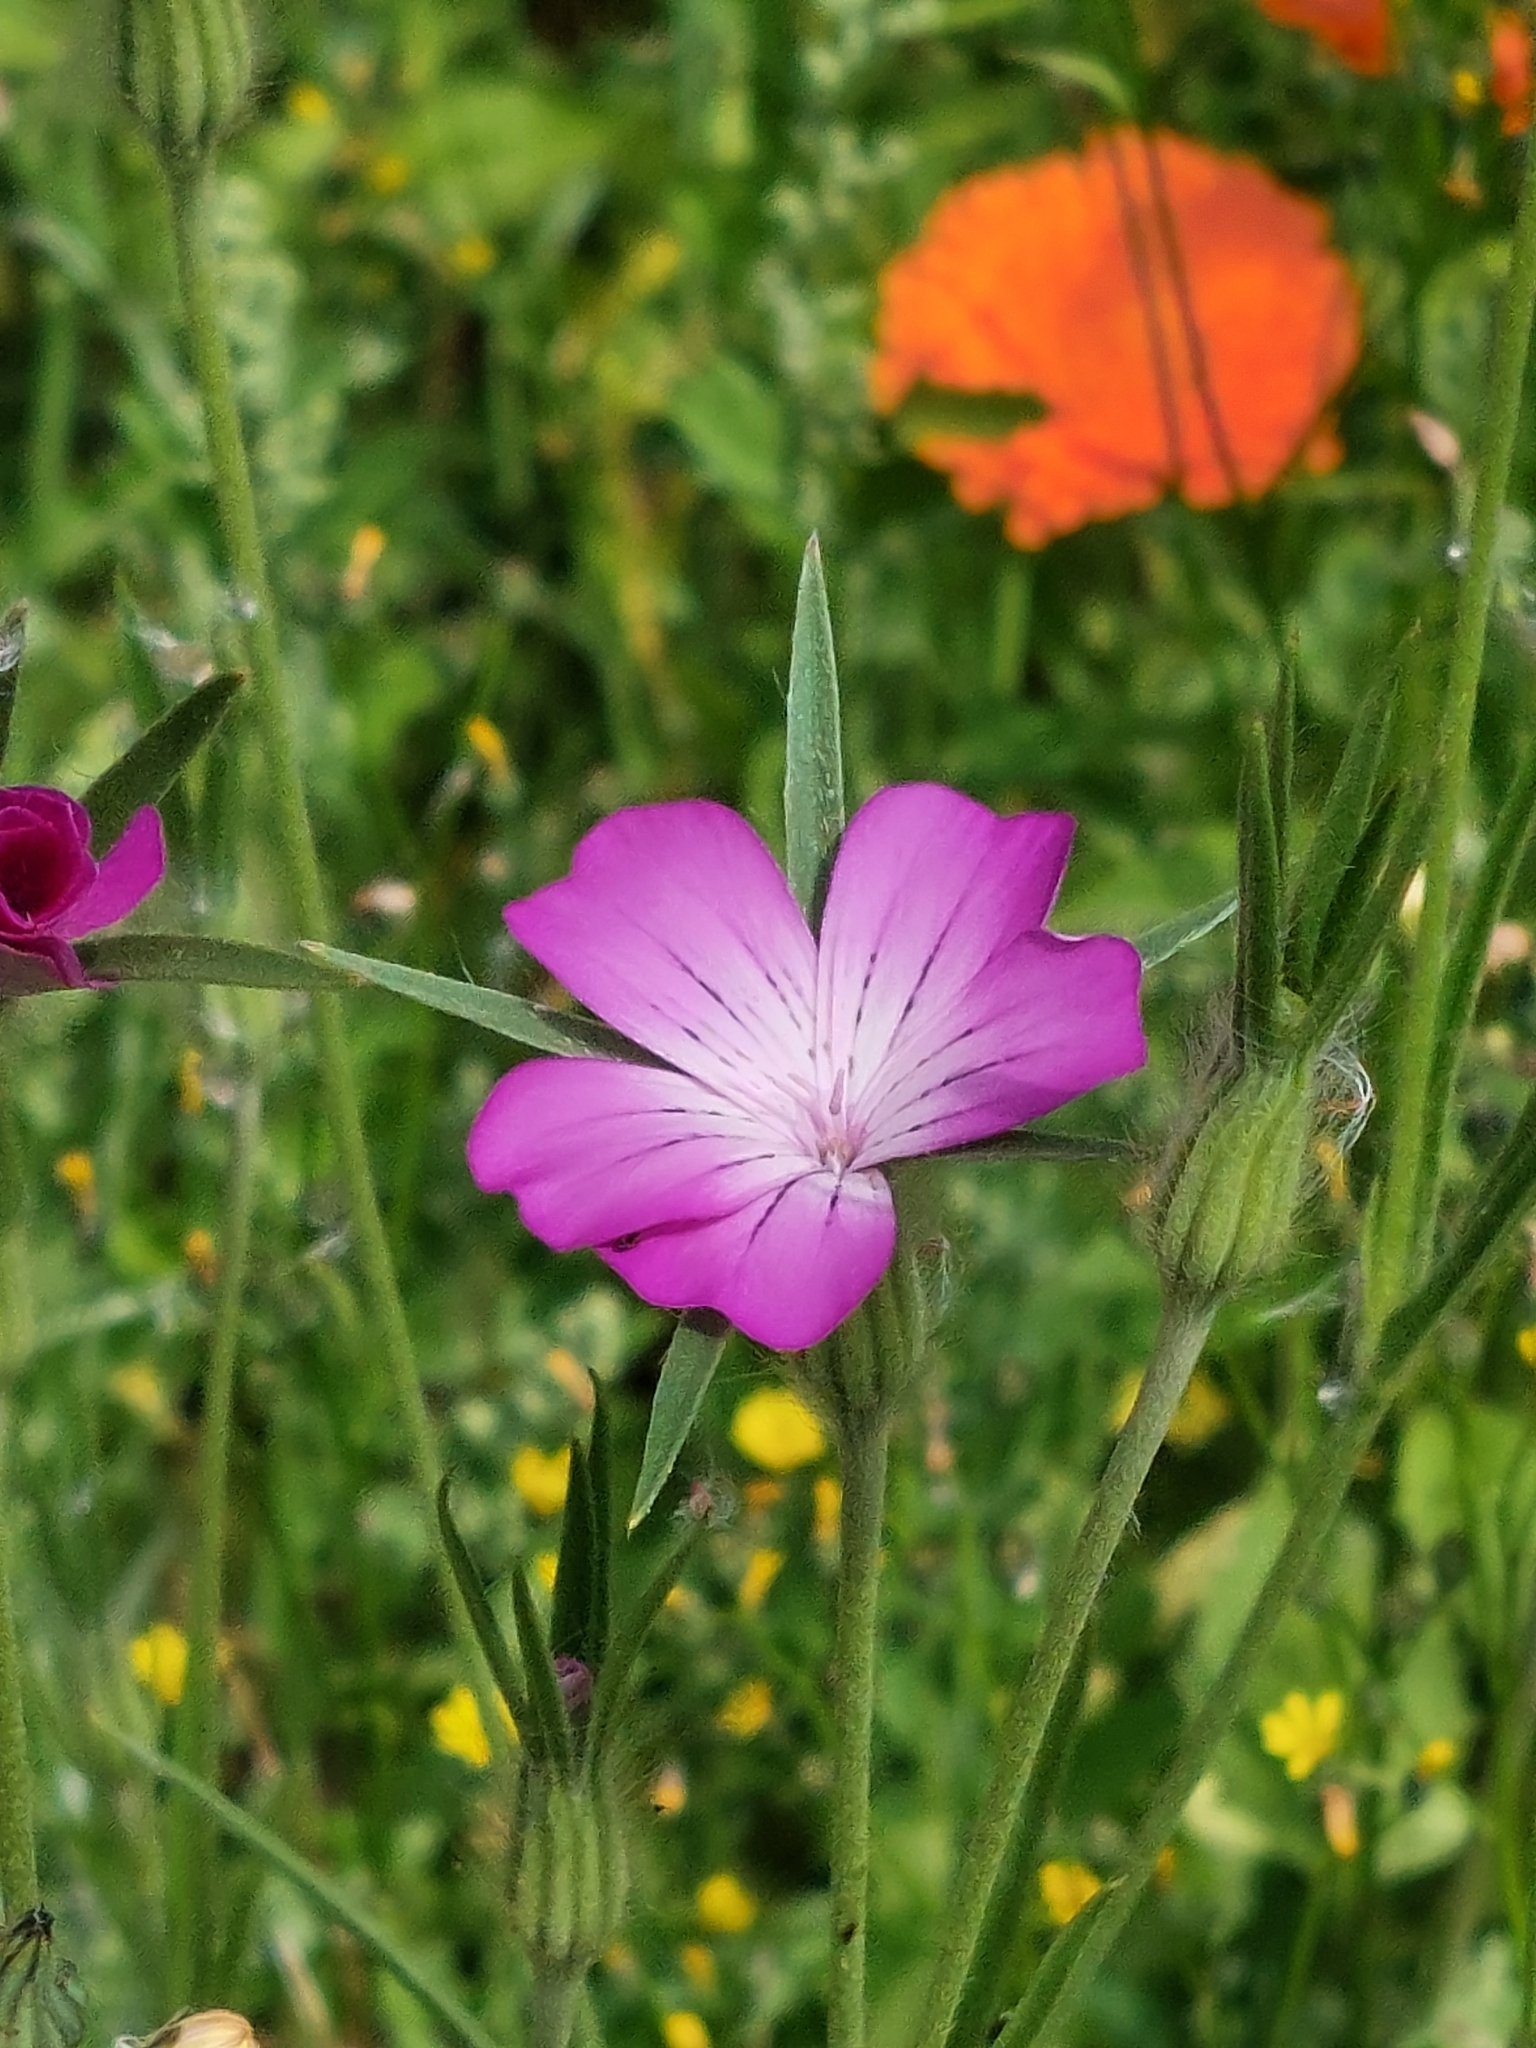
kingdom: Plantae
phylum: Tracheophyta
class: Magnoliopsida
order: Caryophyllales
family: Caryophyllaceae
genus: Agrostemma
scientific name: Agrostemma githago
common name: Common corncockle
